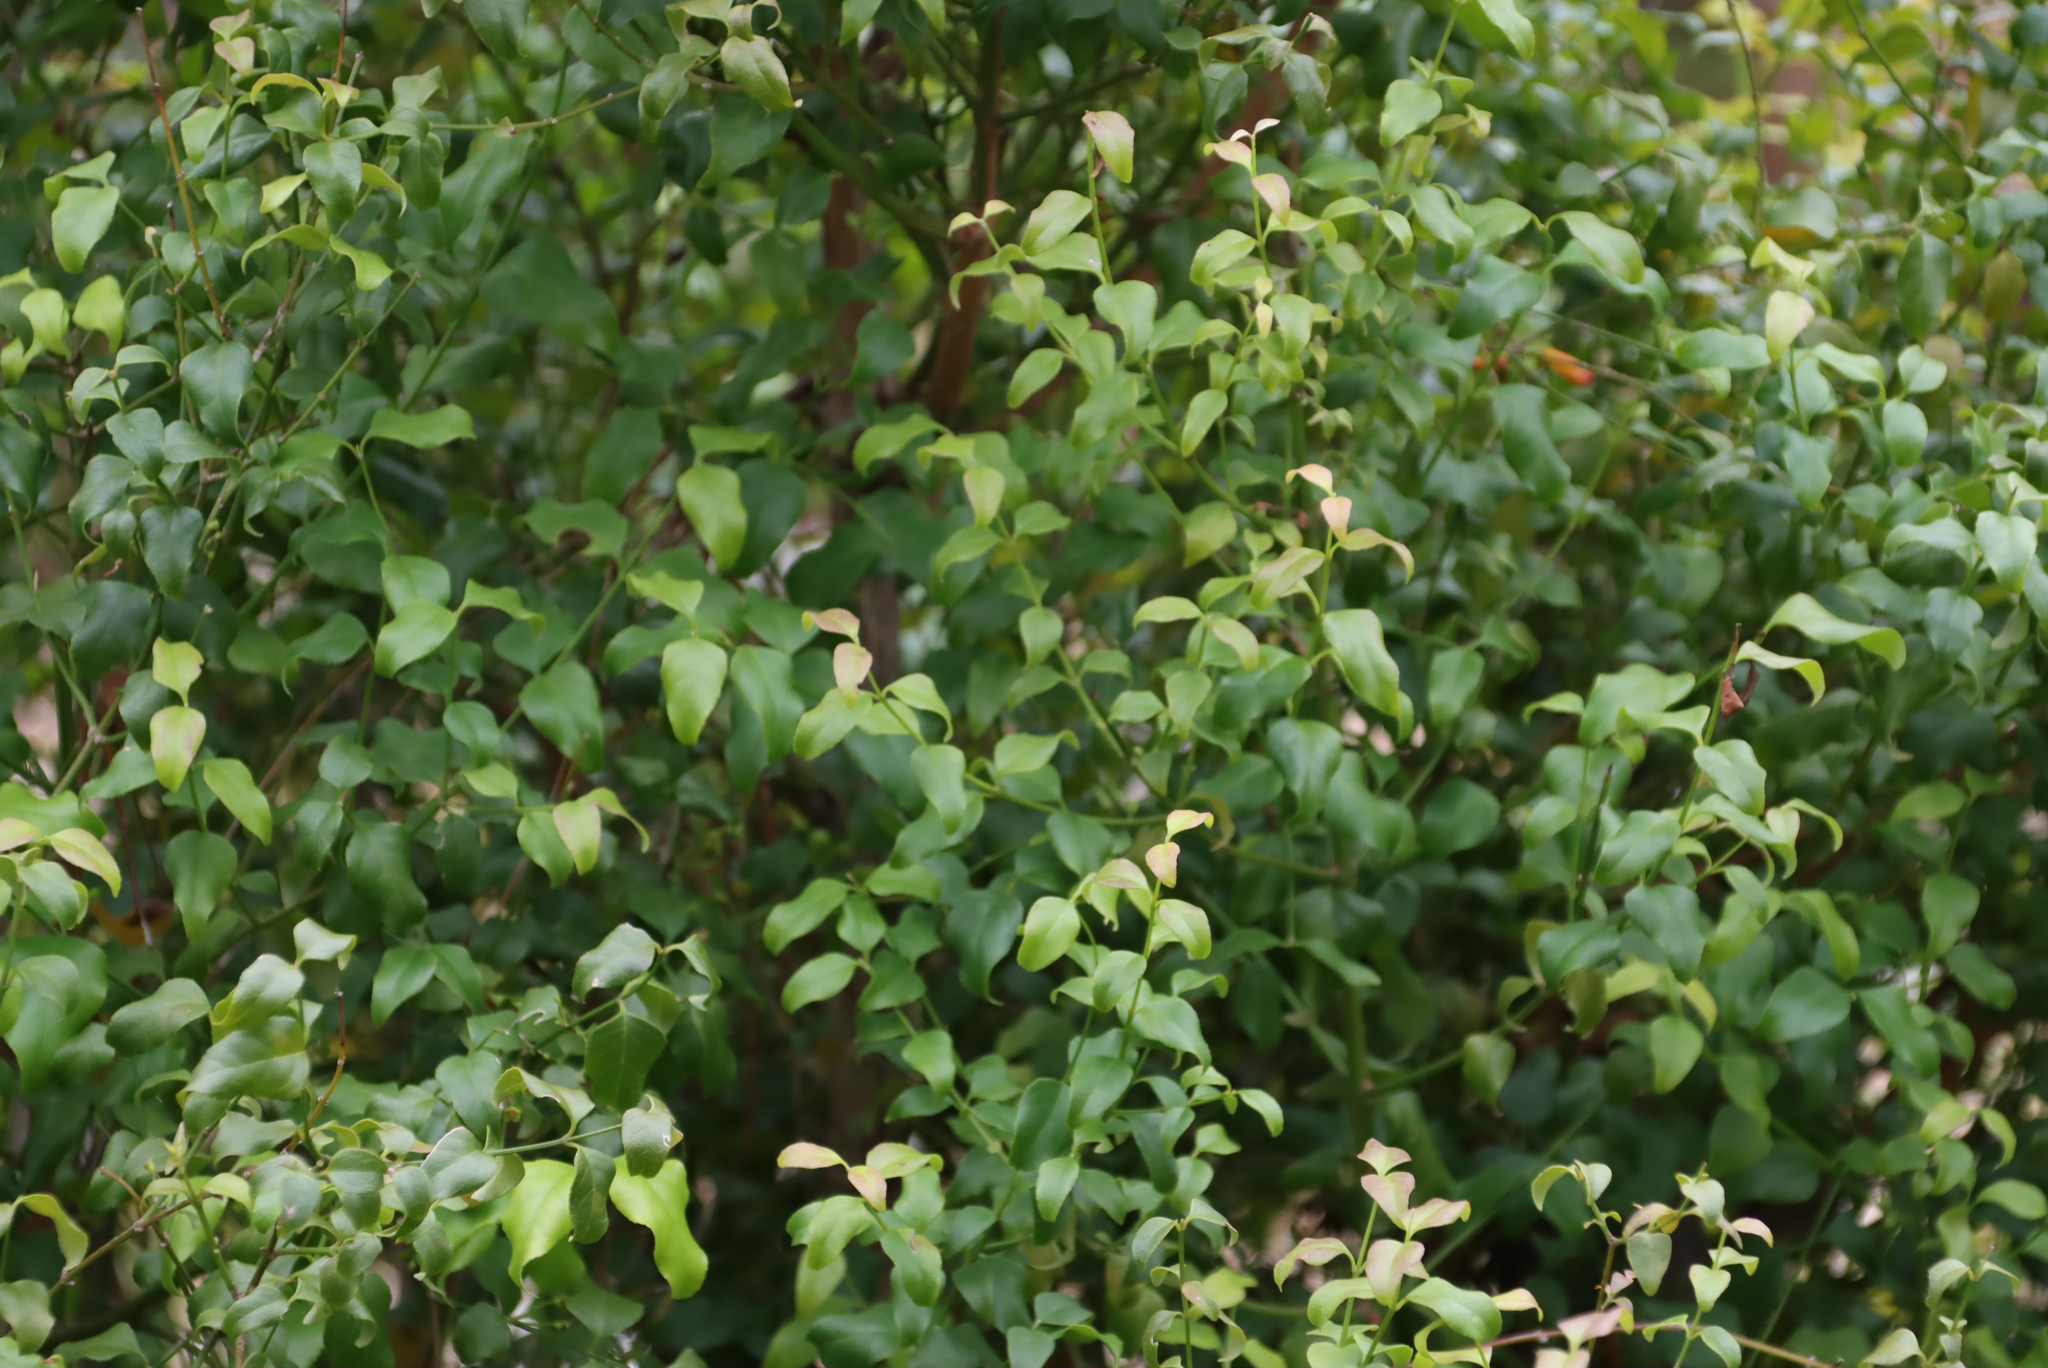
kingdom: Plantae
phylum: Tracheophyta
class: Magnoliopsida
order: Lamiales
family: Stilbaceae
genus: Halleria
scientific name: Halleria lucida
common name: Tree fuschia
